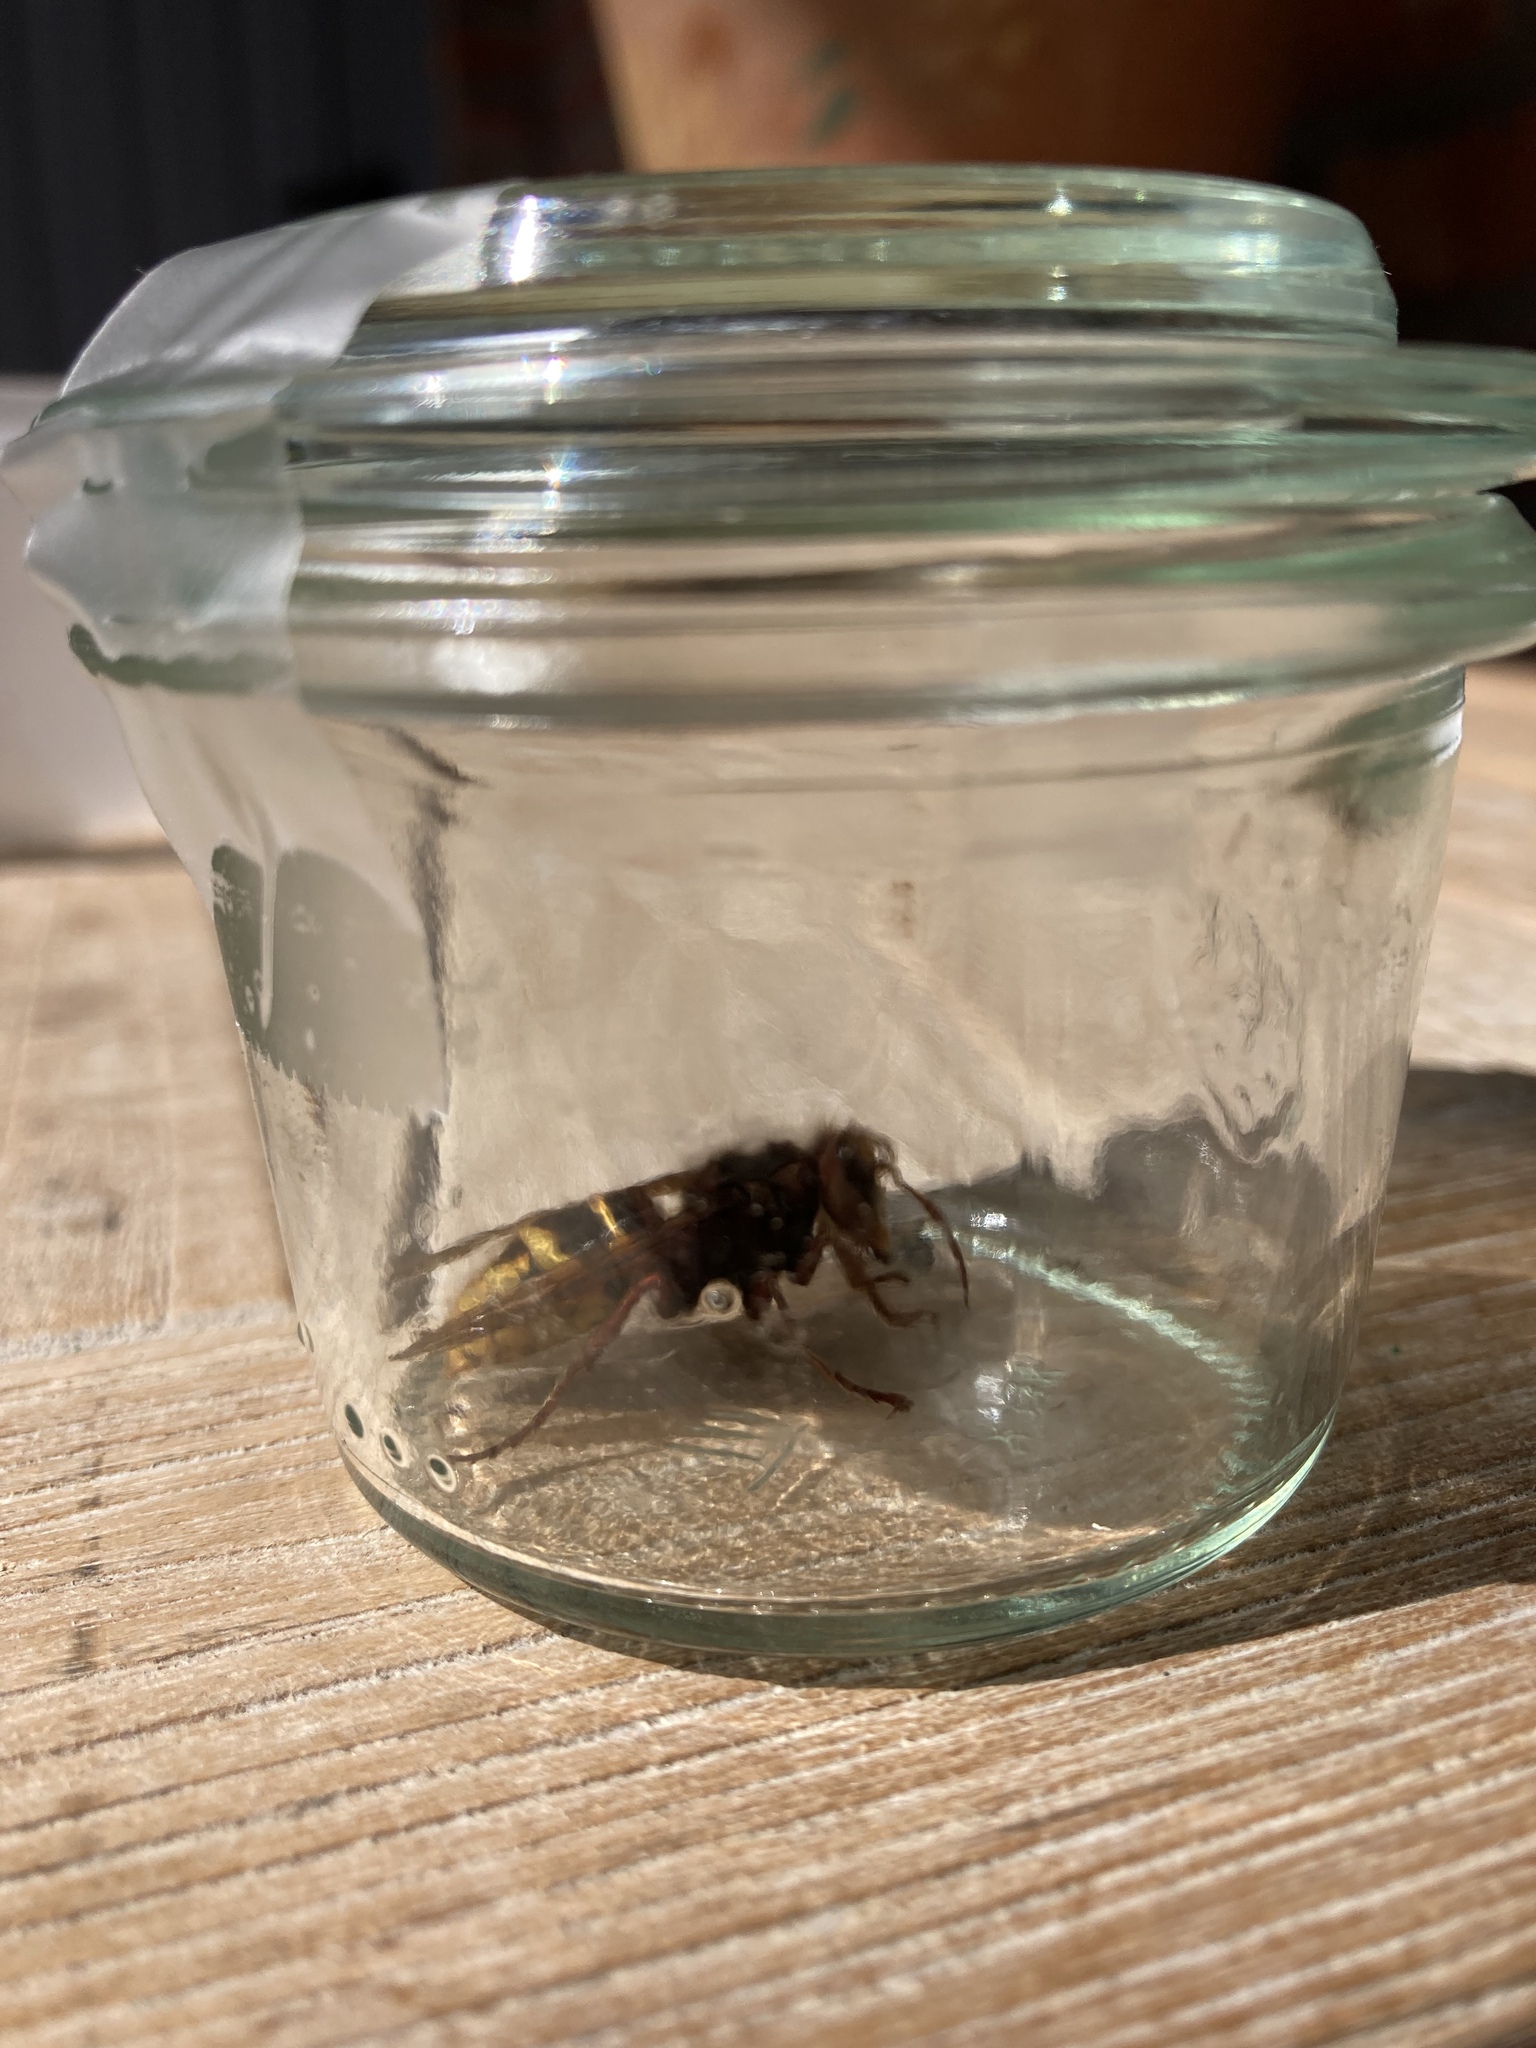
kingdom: Animalia
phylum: Arthropoda
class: Insecta
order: Hymenoptera
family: Vespidae
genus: Vespa
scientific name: Vespa crabro
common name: Hornet
